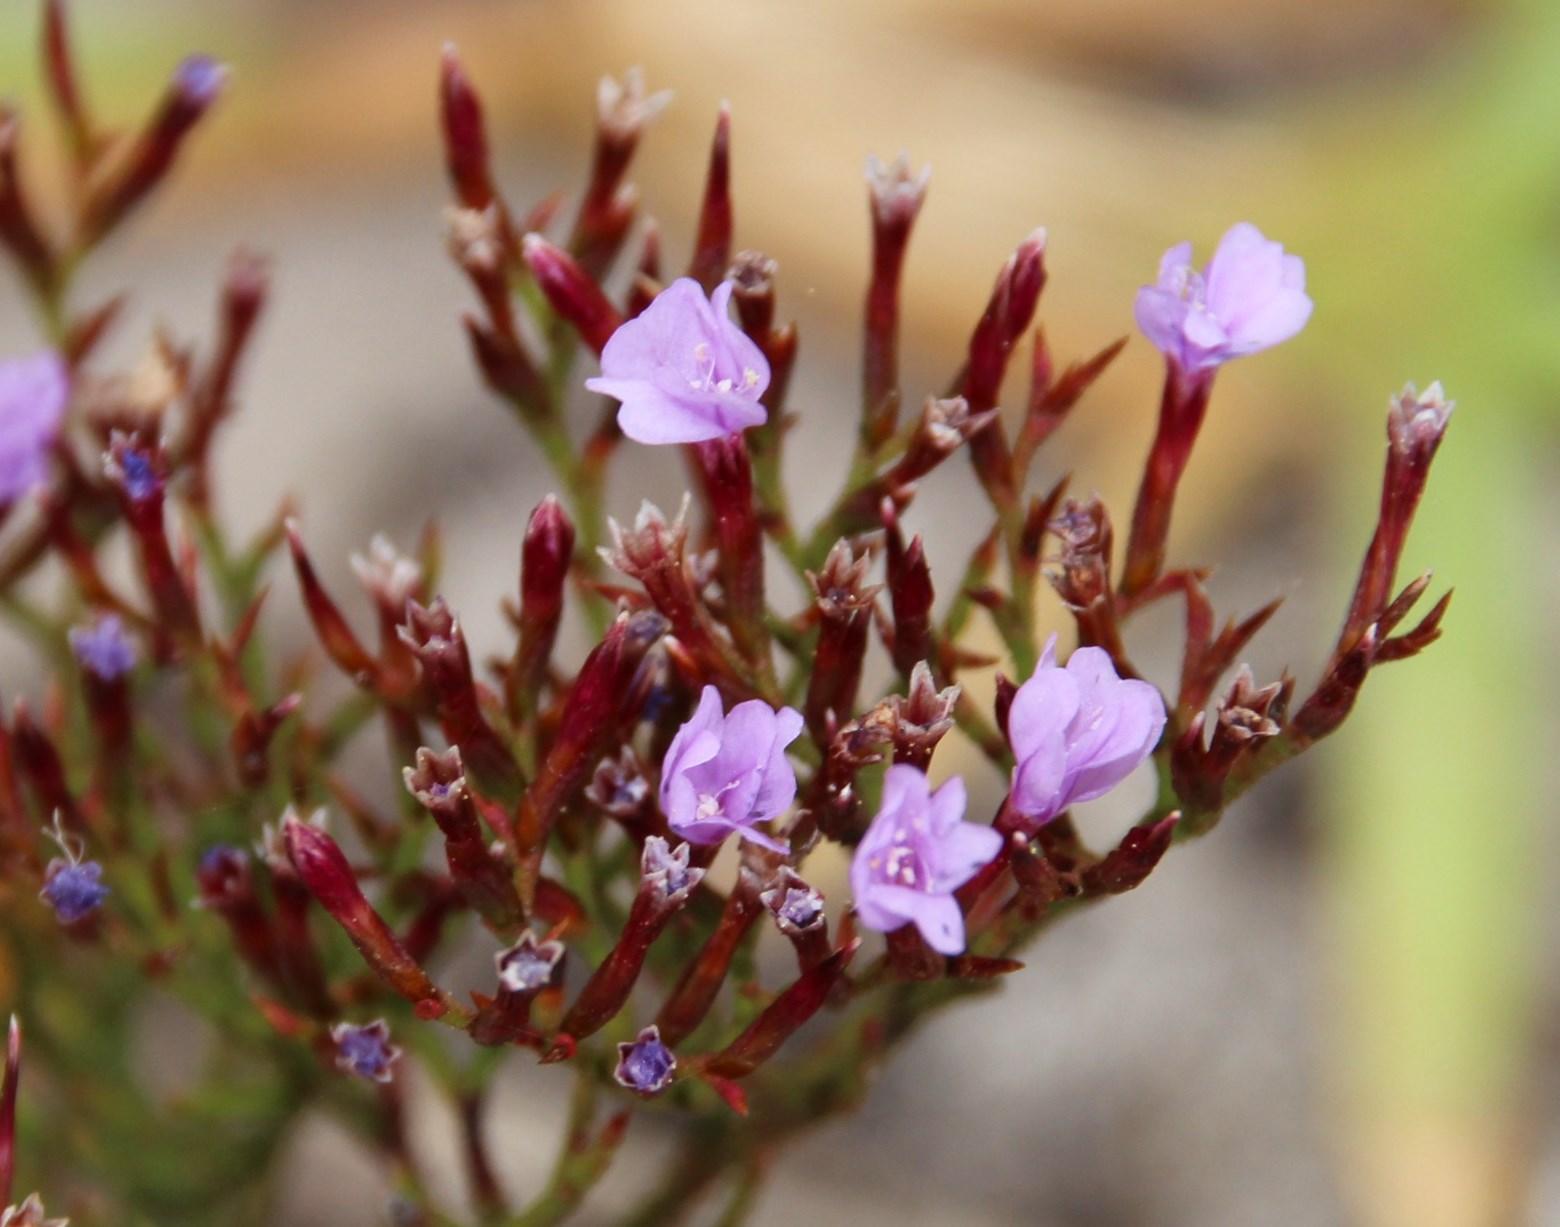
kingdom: Plantae
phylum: Tracheophyta
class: Magnoliopsida
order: Caryophyllales
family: Plumbaginaceae
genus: Limonium
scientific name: Limonium scabrum
